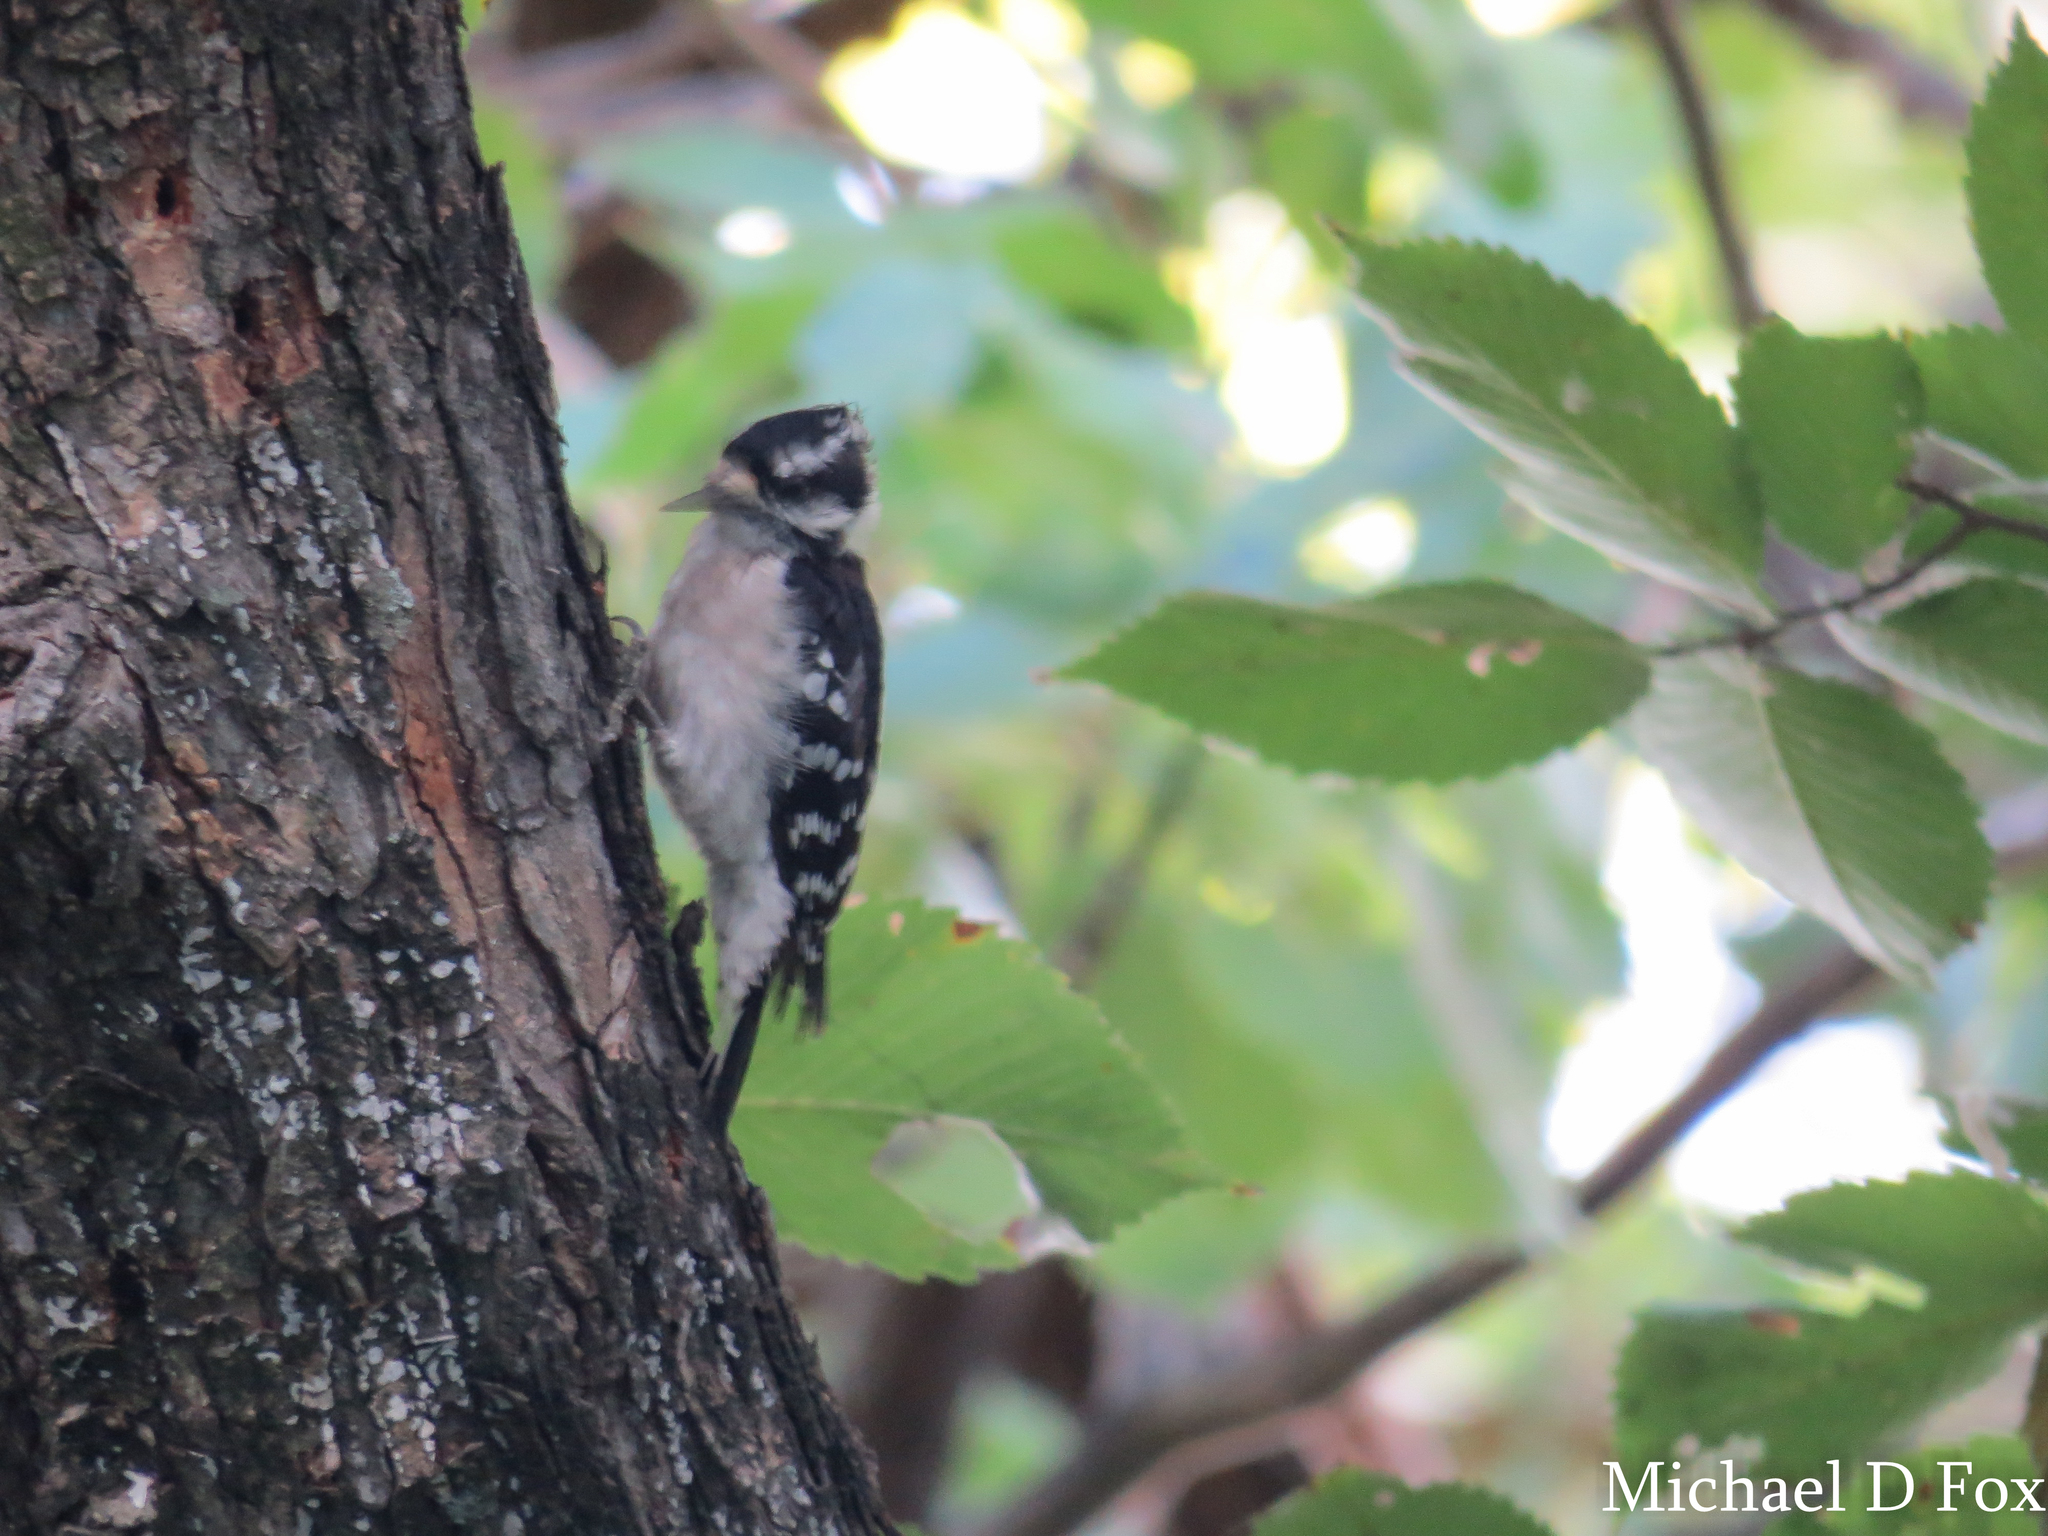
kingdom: Animalia
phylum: Chordata
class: Aves
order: Piciformes
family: Picidae
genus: Dryobates
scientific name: Dryobates pubescens
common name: Downy woodpecker
